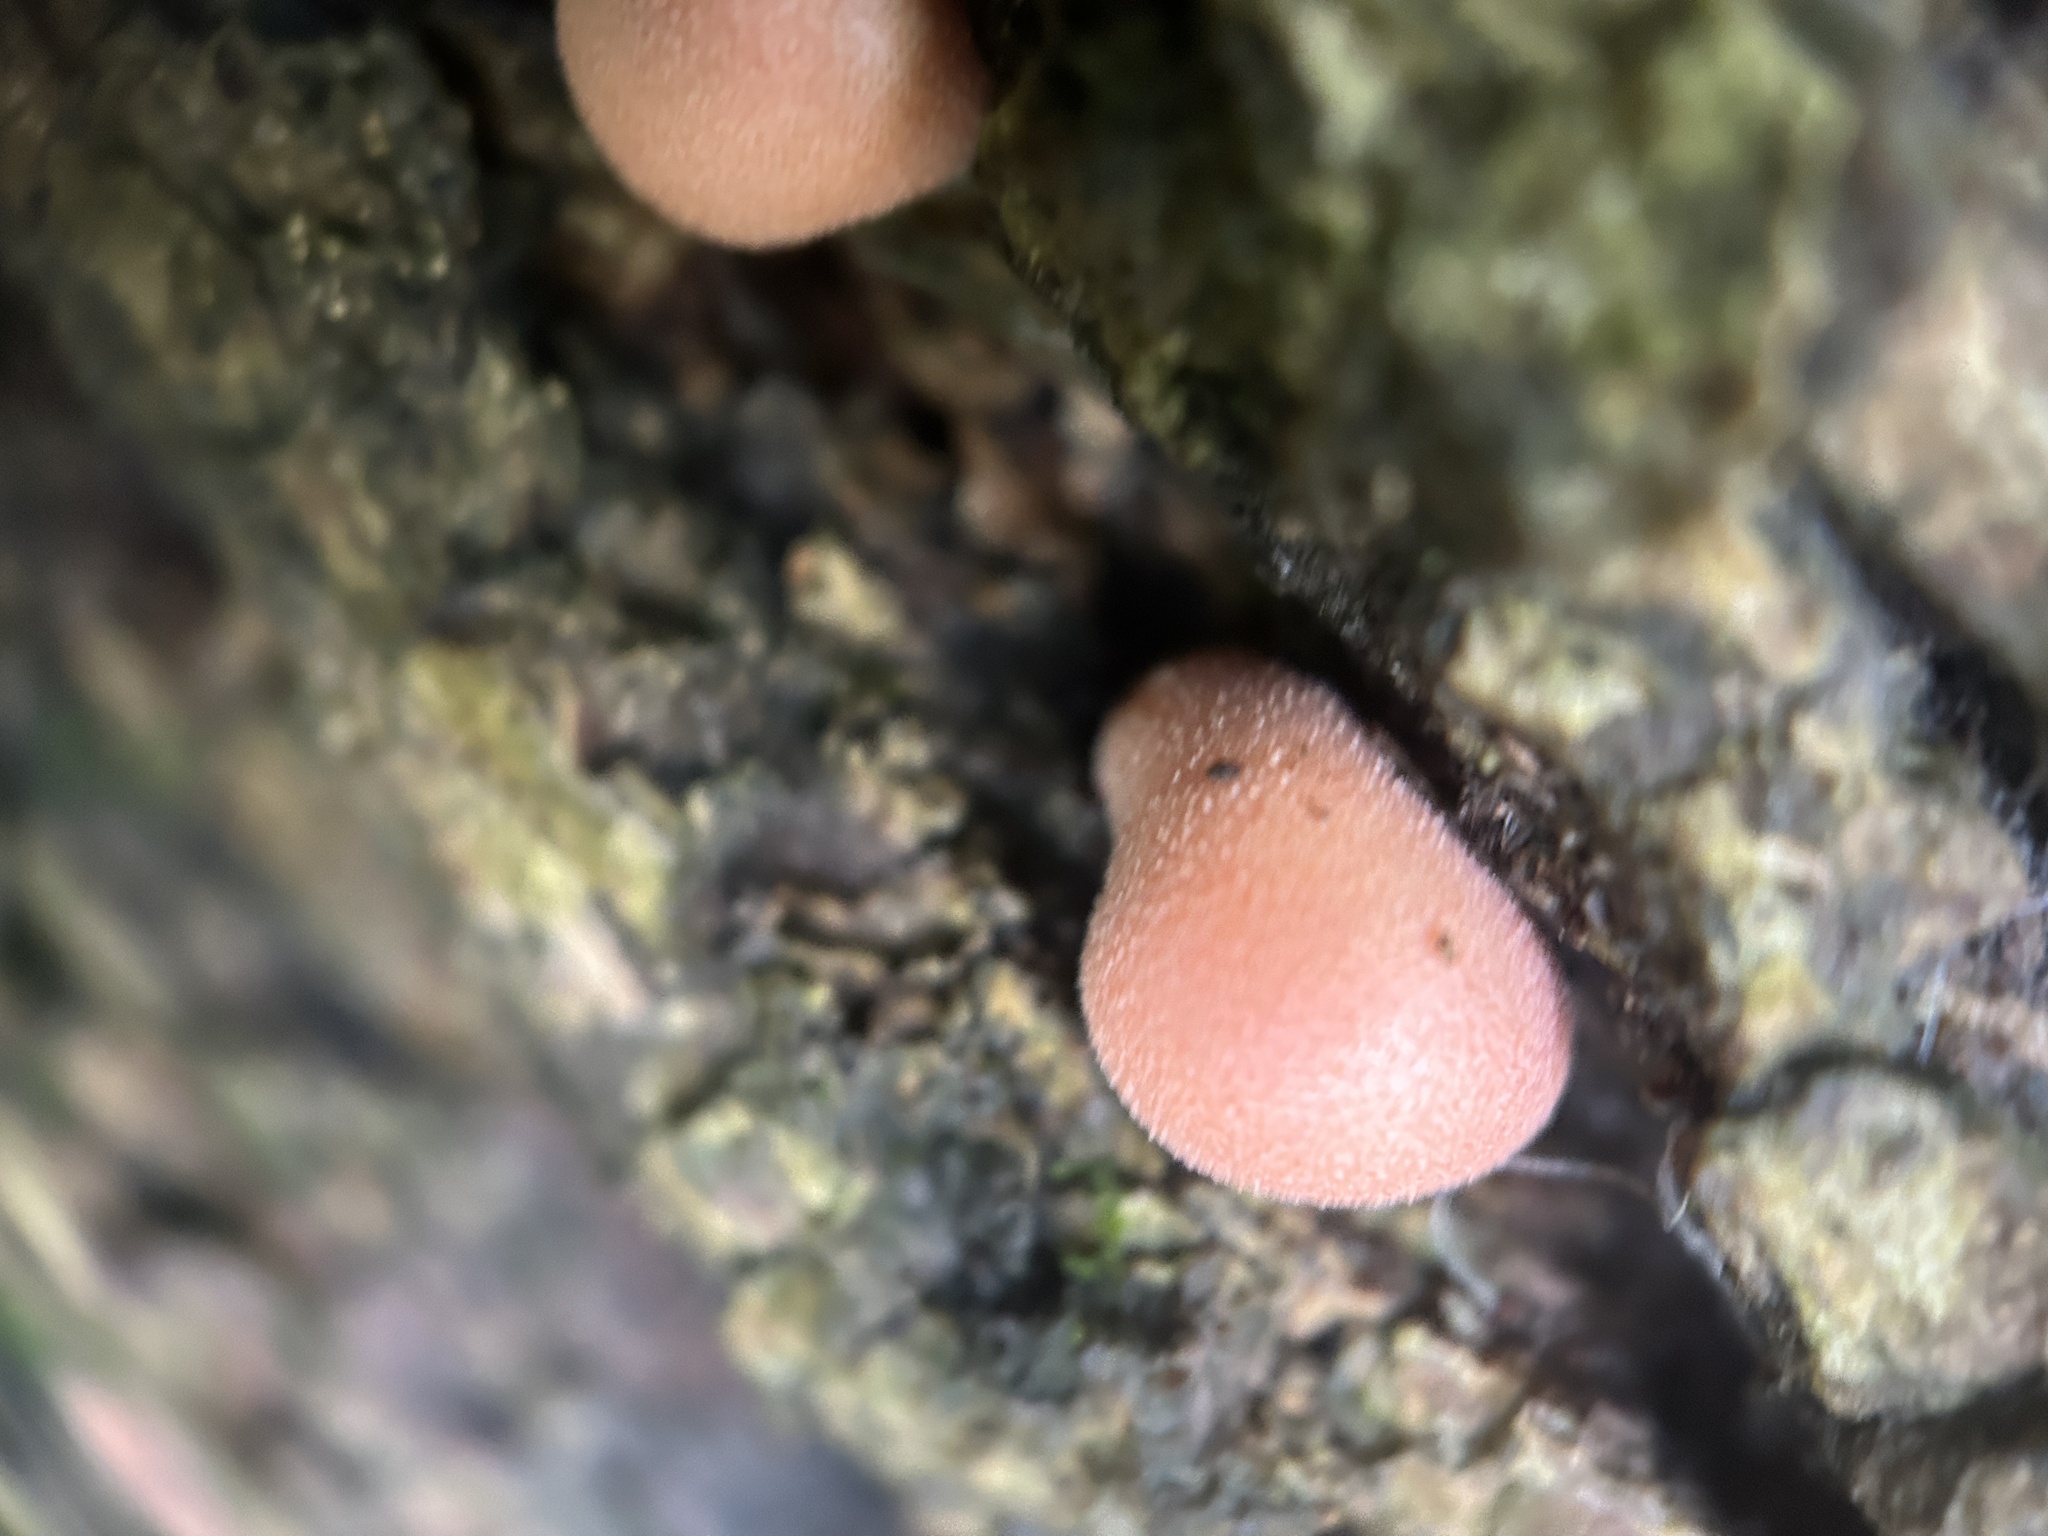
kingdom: Protozoa
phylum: Mycetozoa
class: Myxomycetes
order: Cribrariales
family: Tubiferaceae
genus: Lycogala
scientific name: Lycogala epidendrum
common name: Wolf's milk
